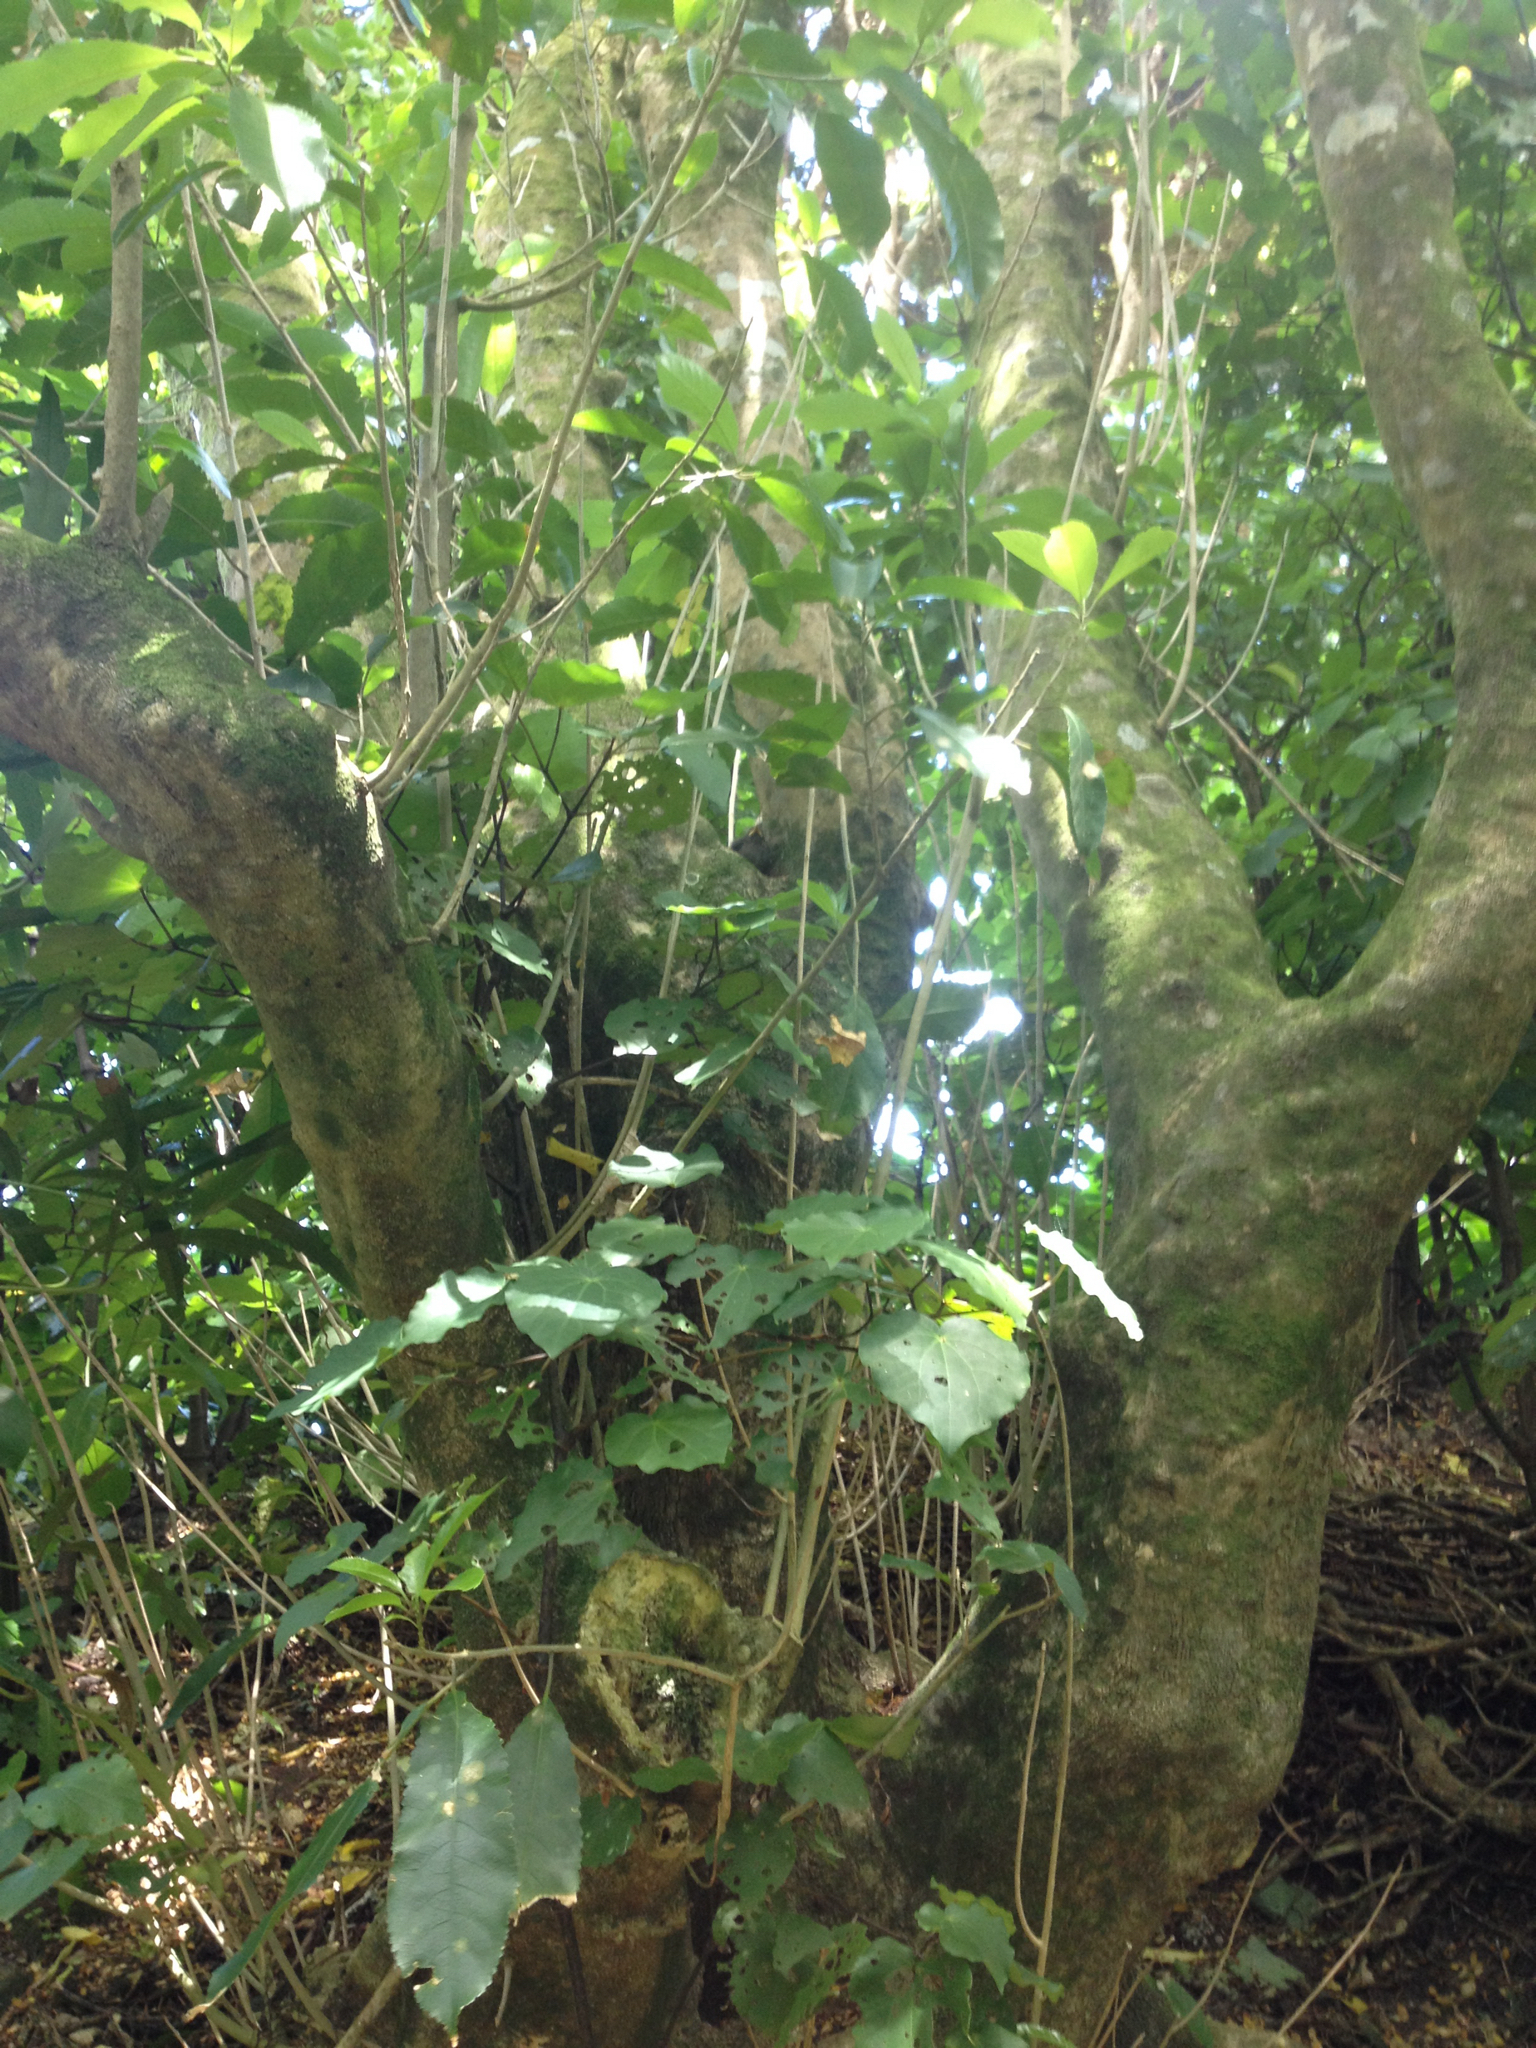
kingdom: Animalia
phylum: Chordata
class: Aves
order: Passeriformes
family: Meliphagidae
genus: Anthornis
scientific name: Anthornis melanura
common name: New zealand bellbird
